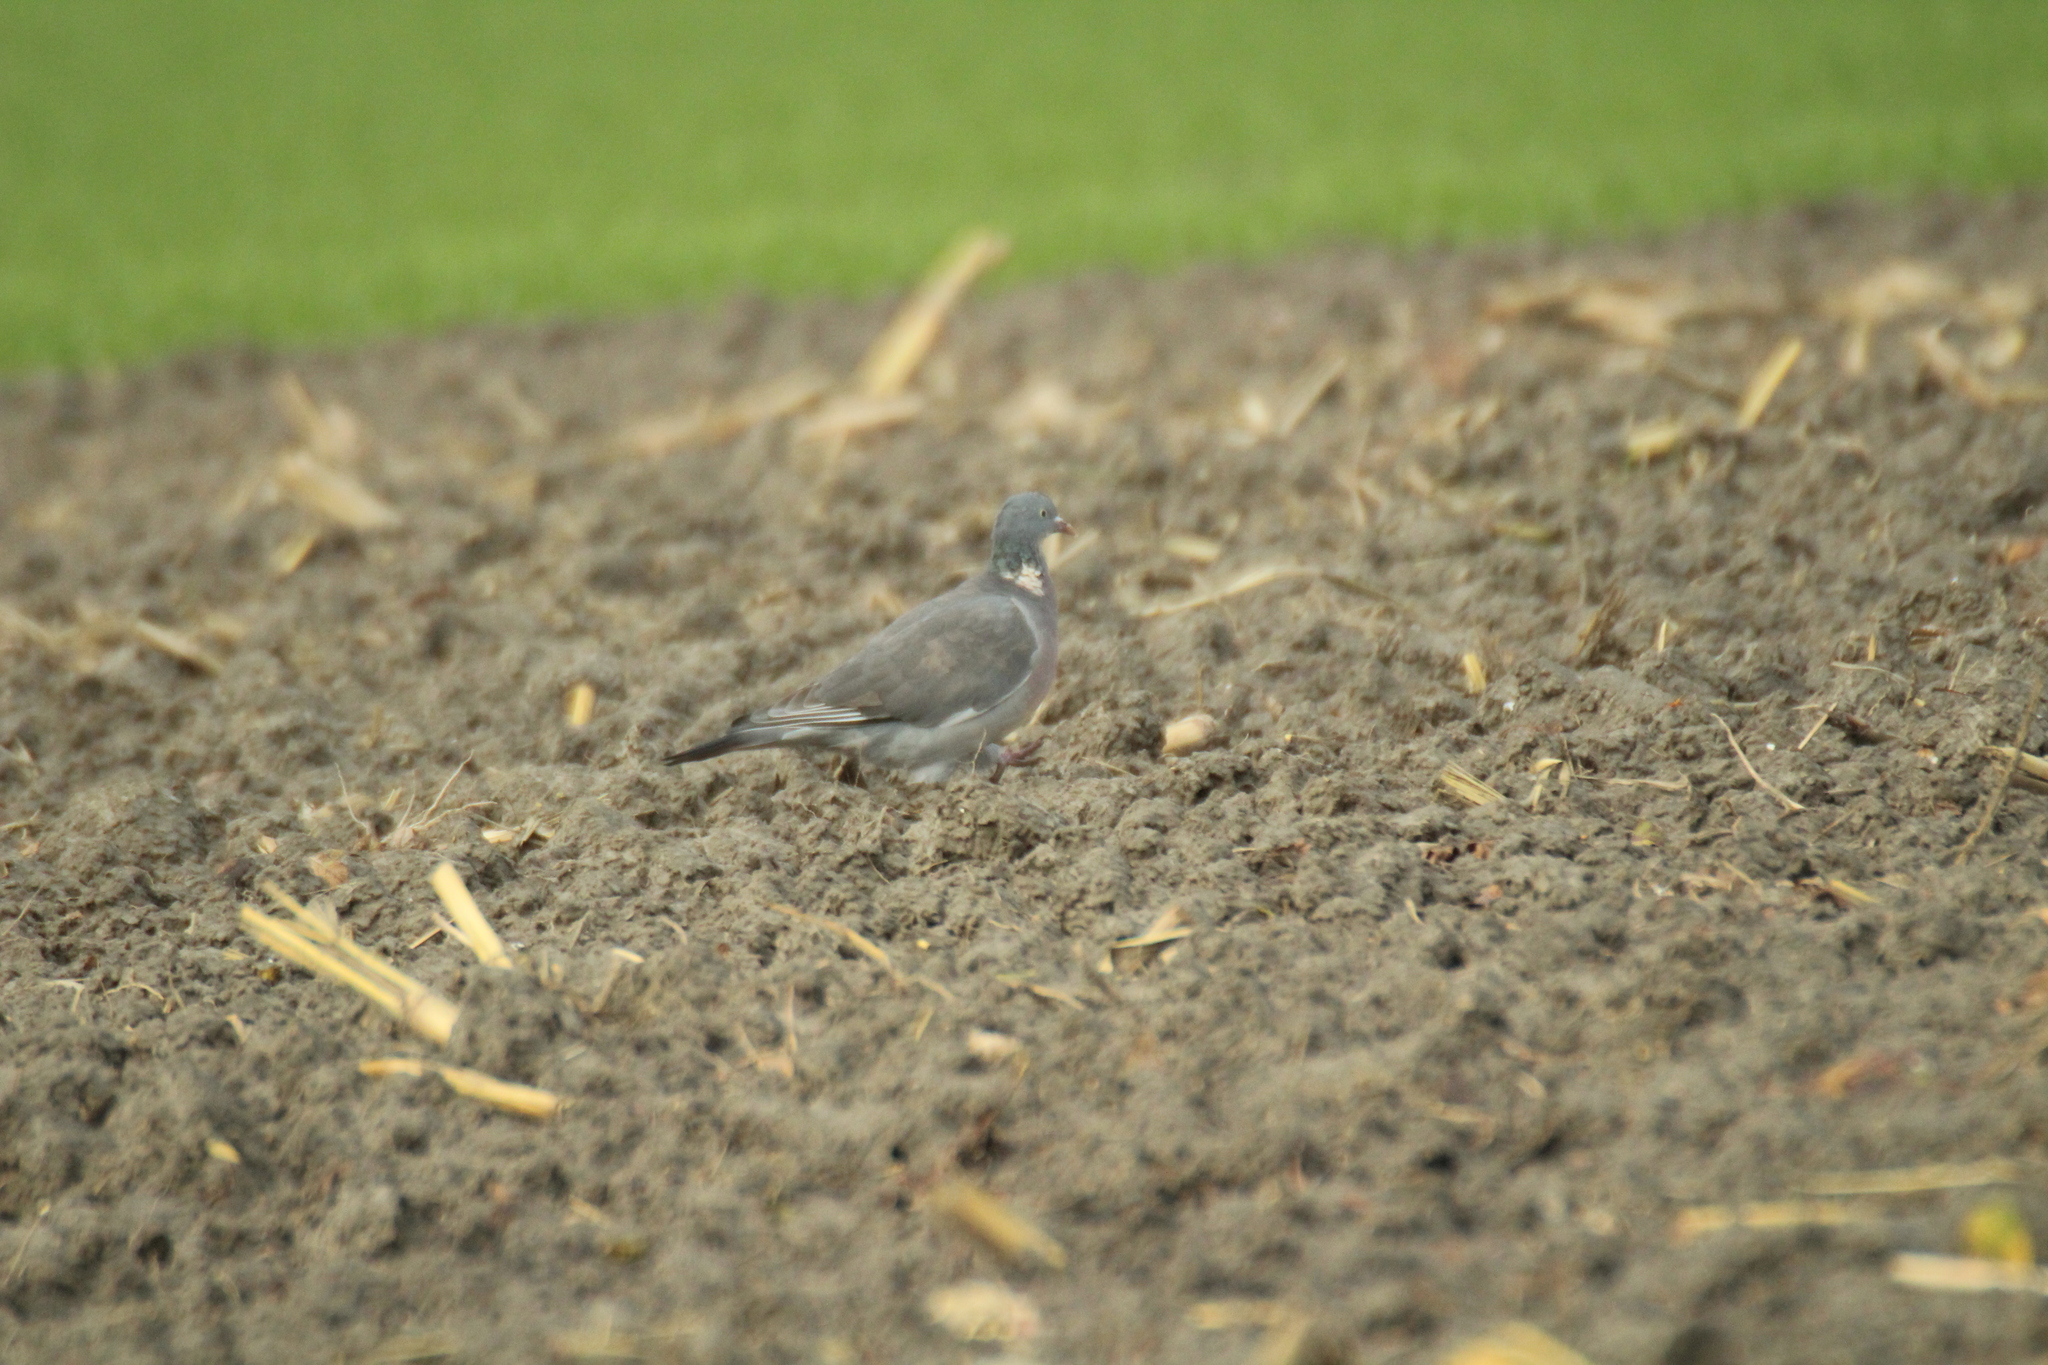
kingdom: Animalia
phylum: Chordata
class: Aves
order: Columbiformes
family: Columbidae
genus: Columba
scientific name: Columba palumbus
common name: Common wood pigeon
